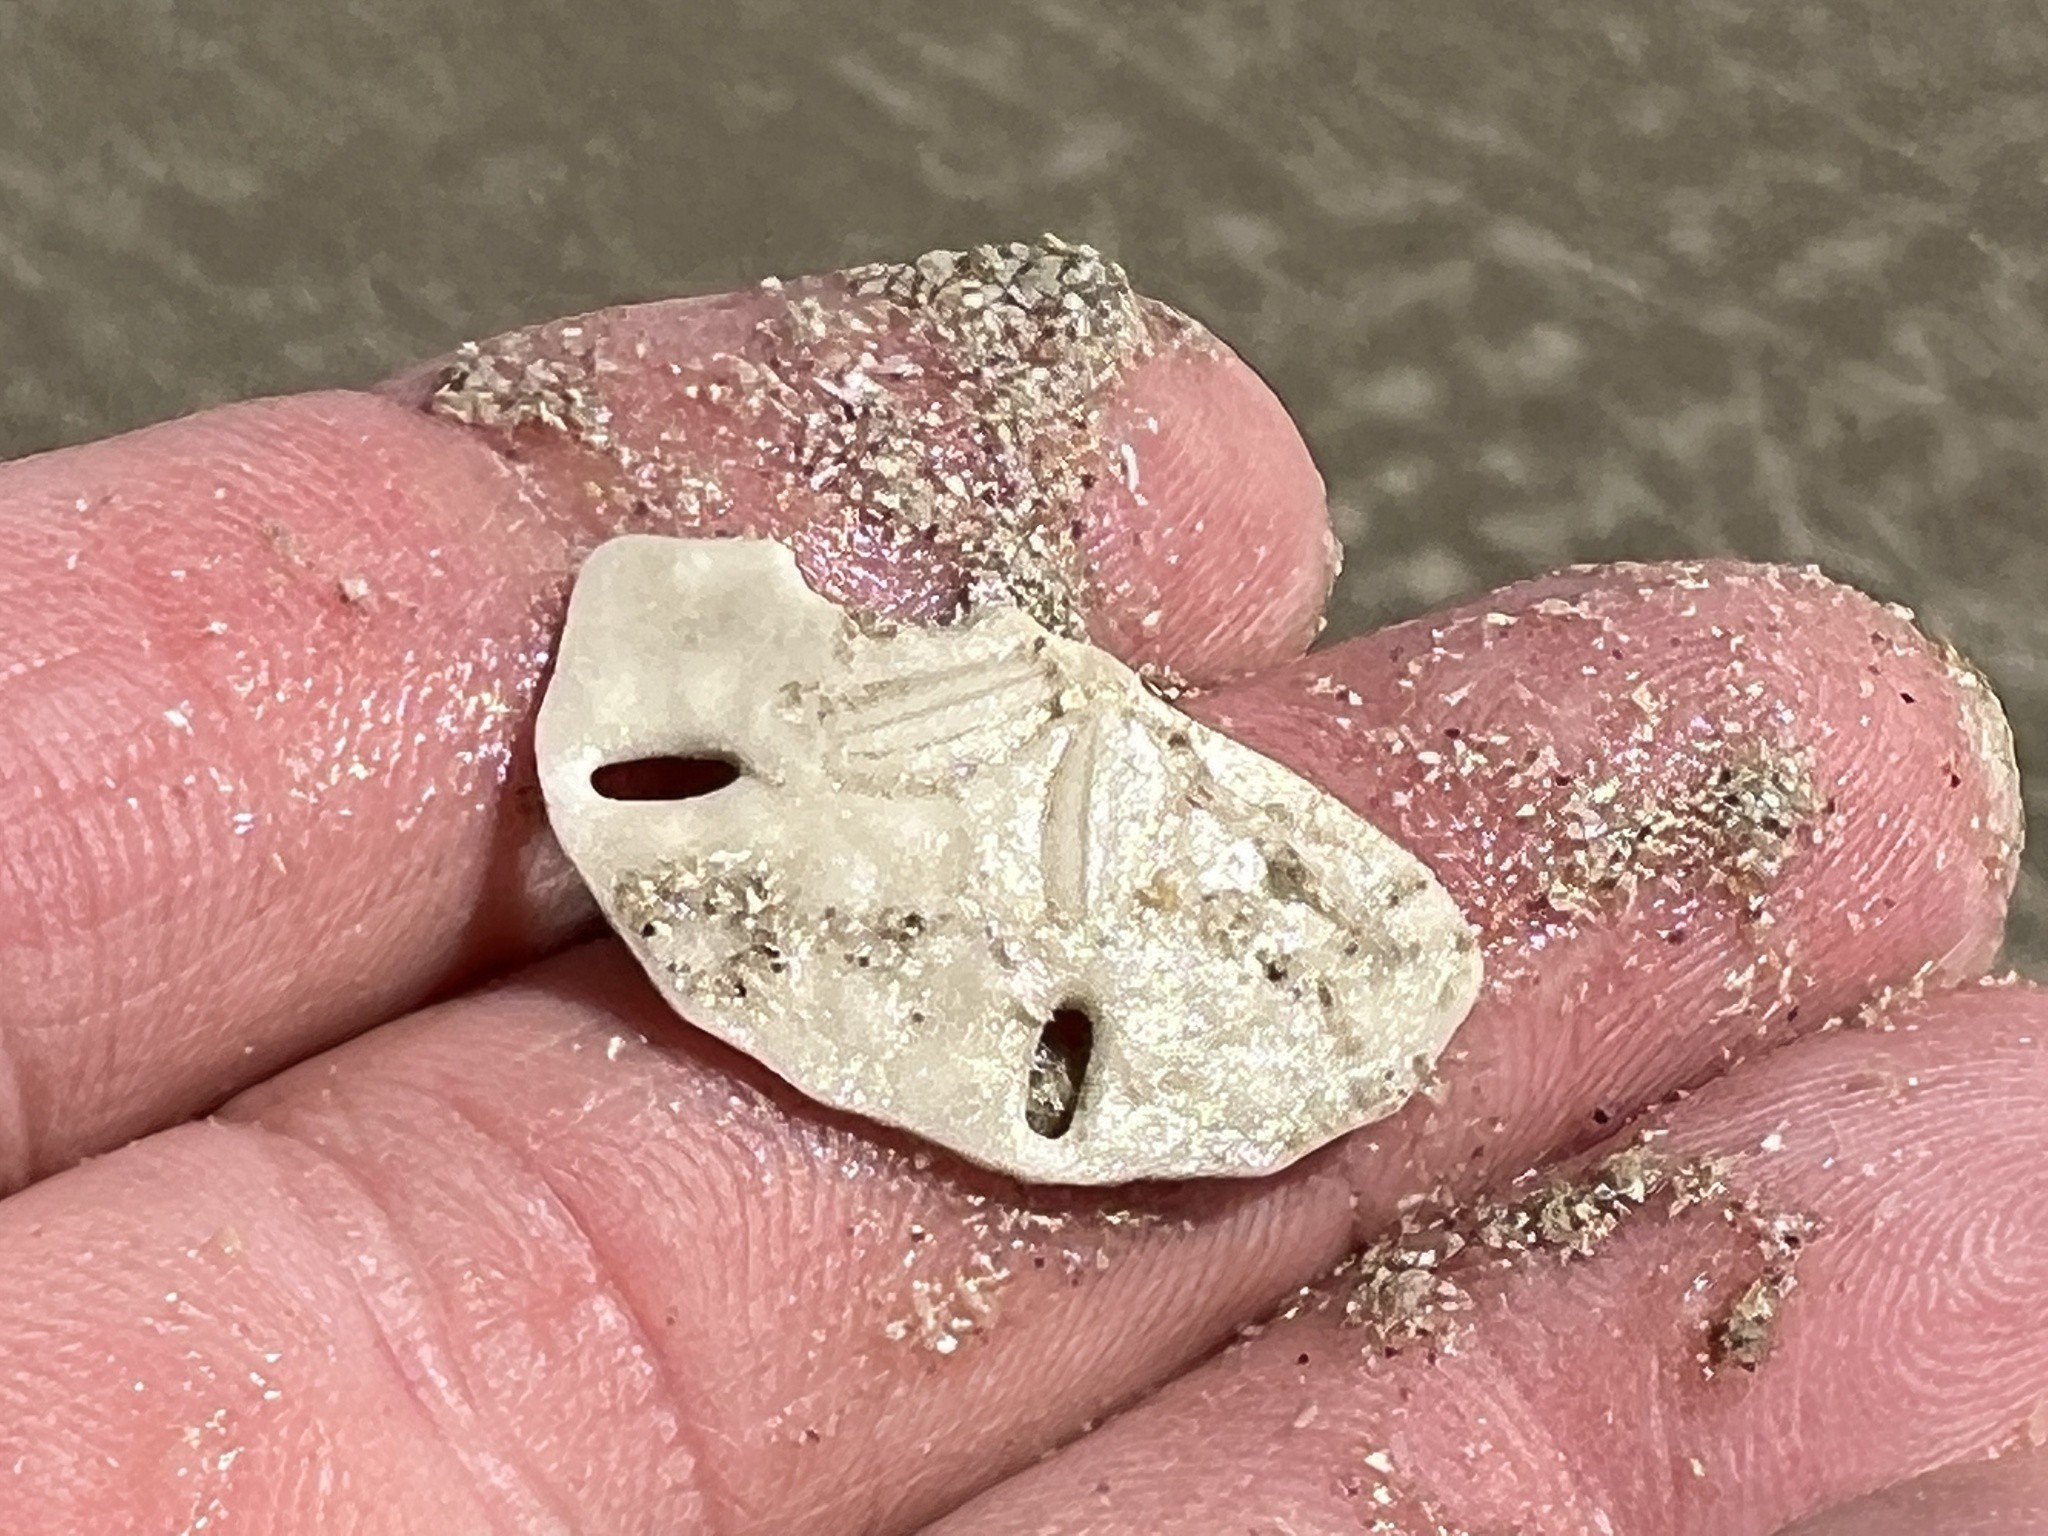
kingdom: Animalia
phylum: Echinodermata
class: Echinoidea
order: Echinolampadacea
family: Mellitidae
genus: Mellita
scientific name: Mellita quinquiesperforata
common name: Sand dollar
